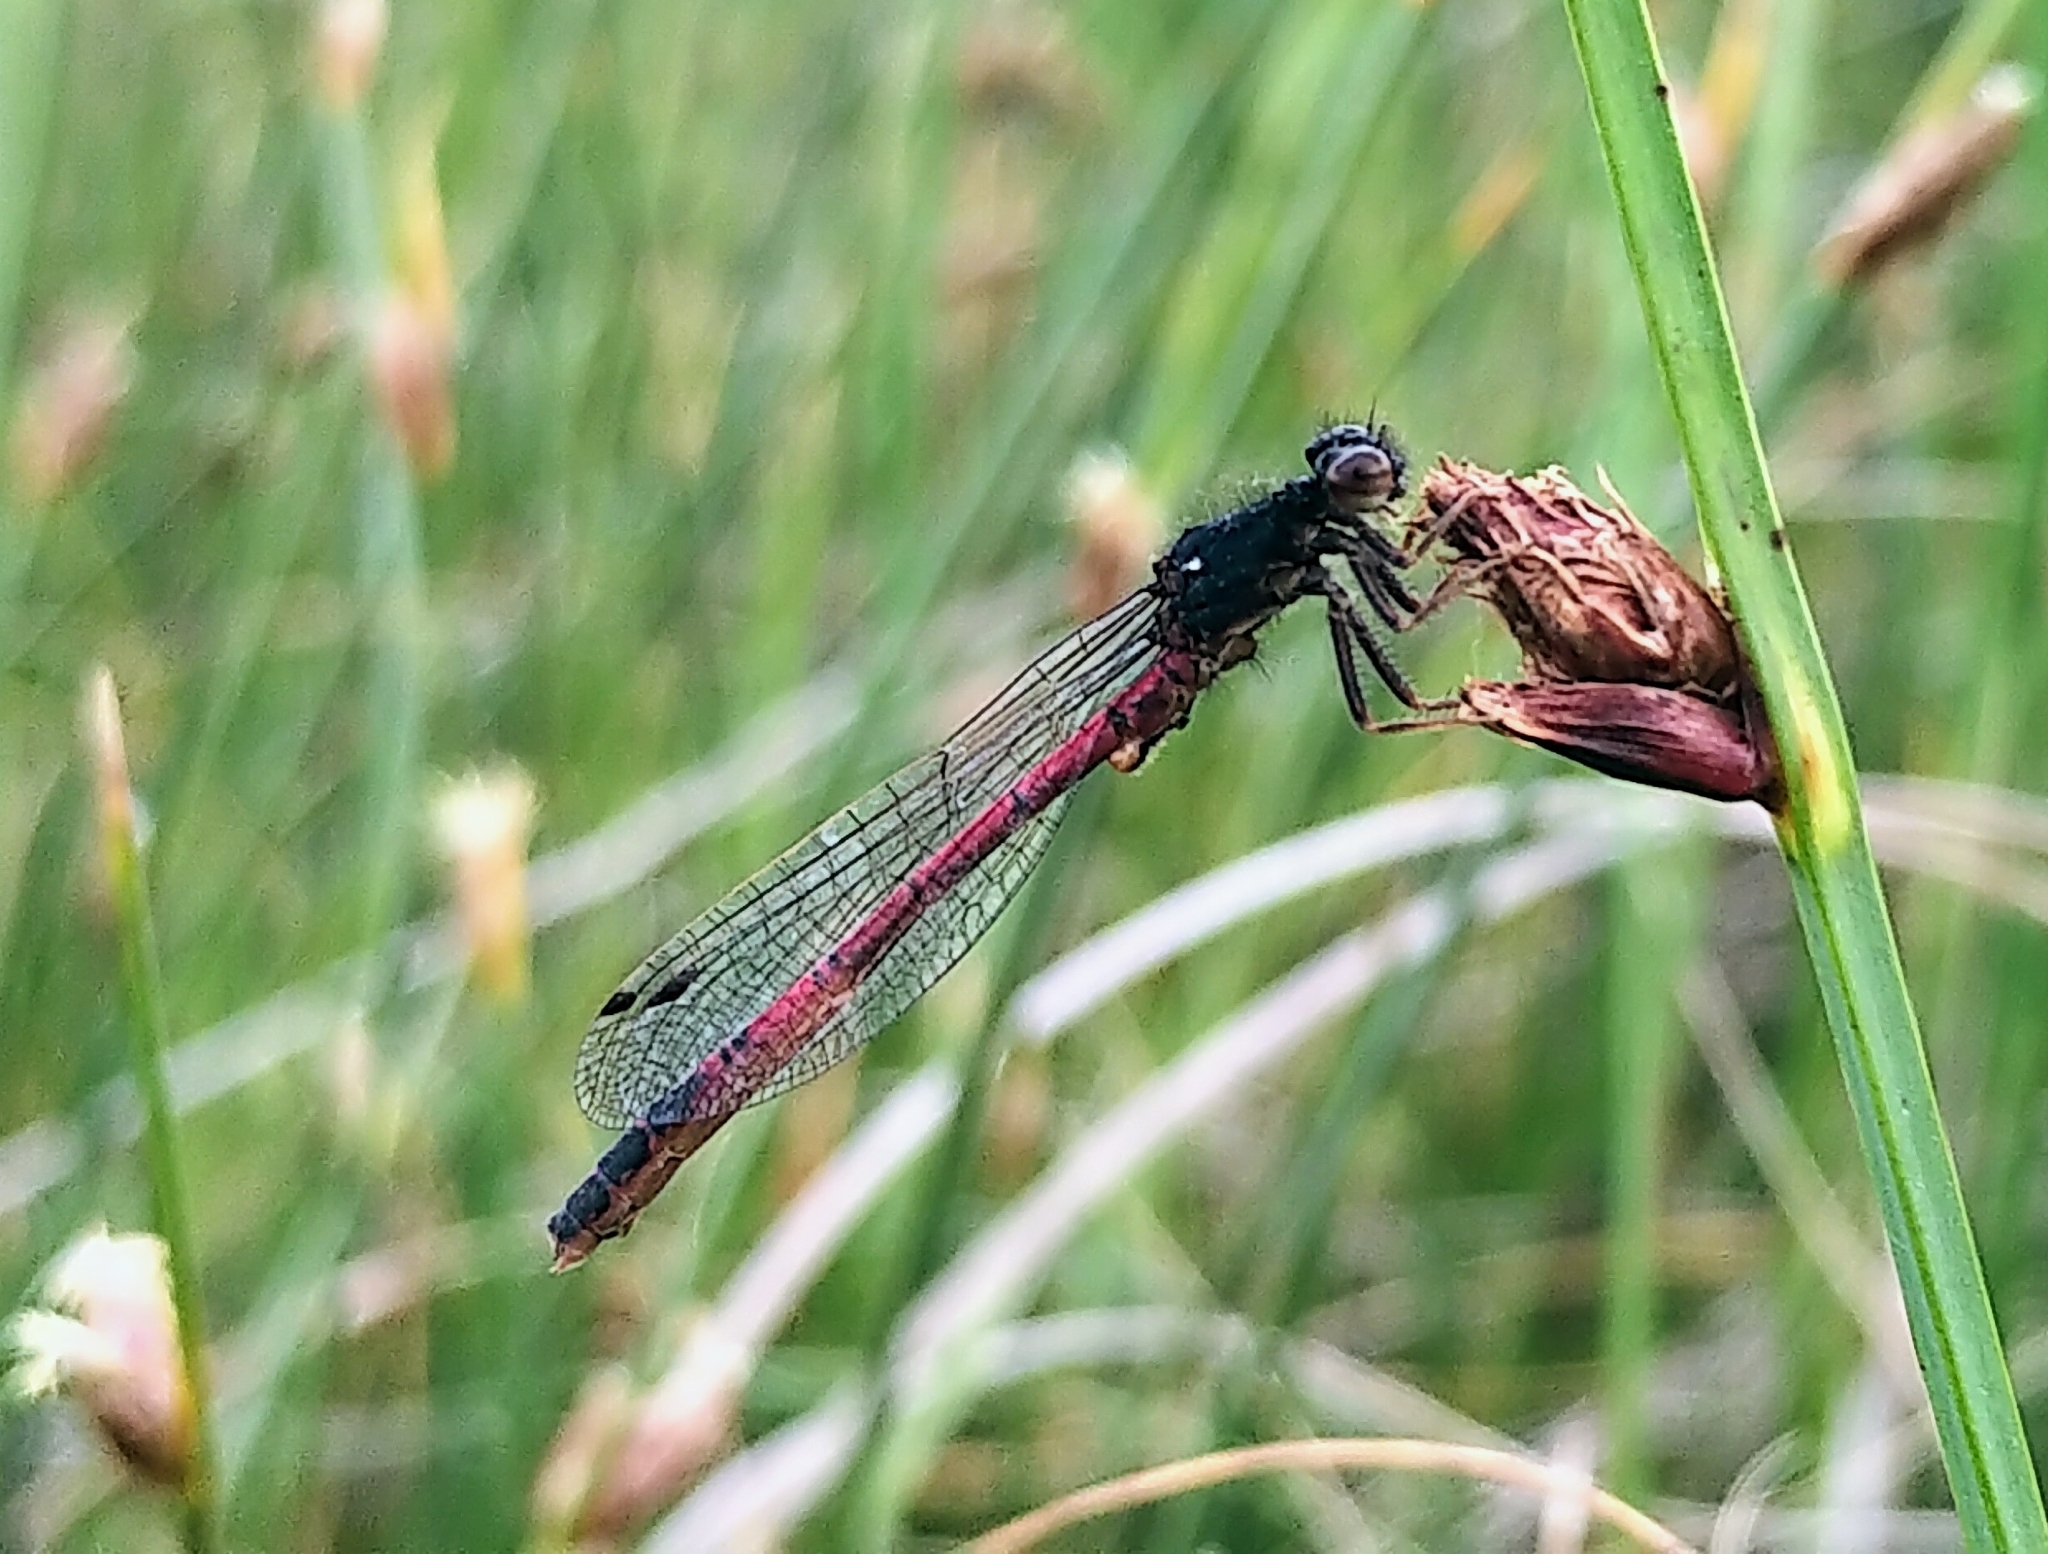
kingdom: Animalia
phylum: Arthropoda
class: Insecta
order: Odonata
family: Coenagrionidae
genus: Amphiagrion
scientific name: Amphiagrion abbreviatum
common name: Western red damsel
